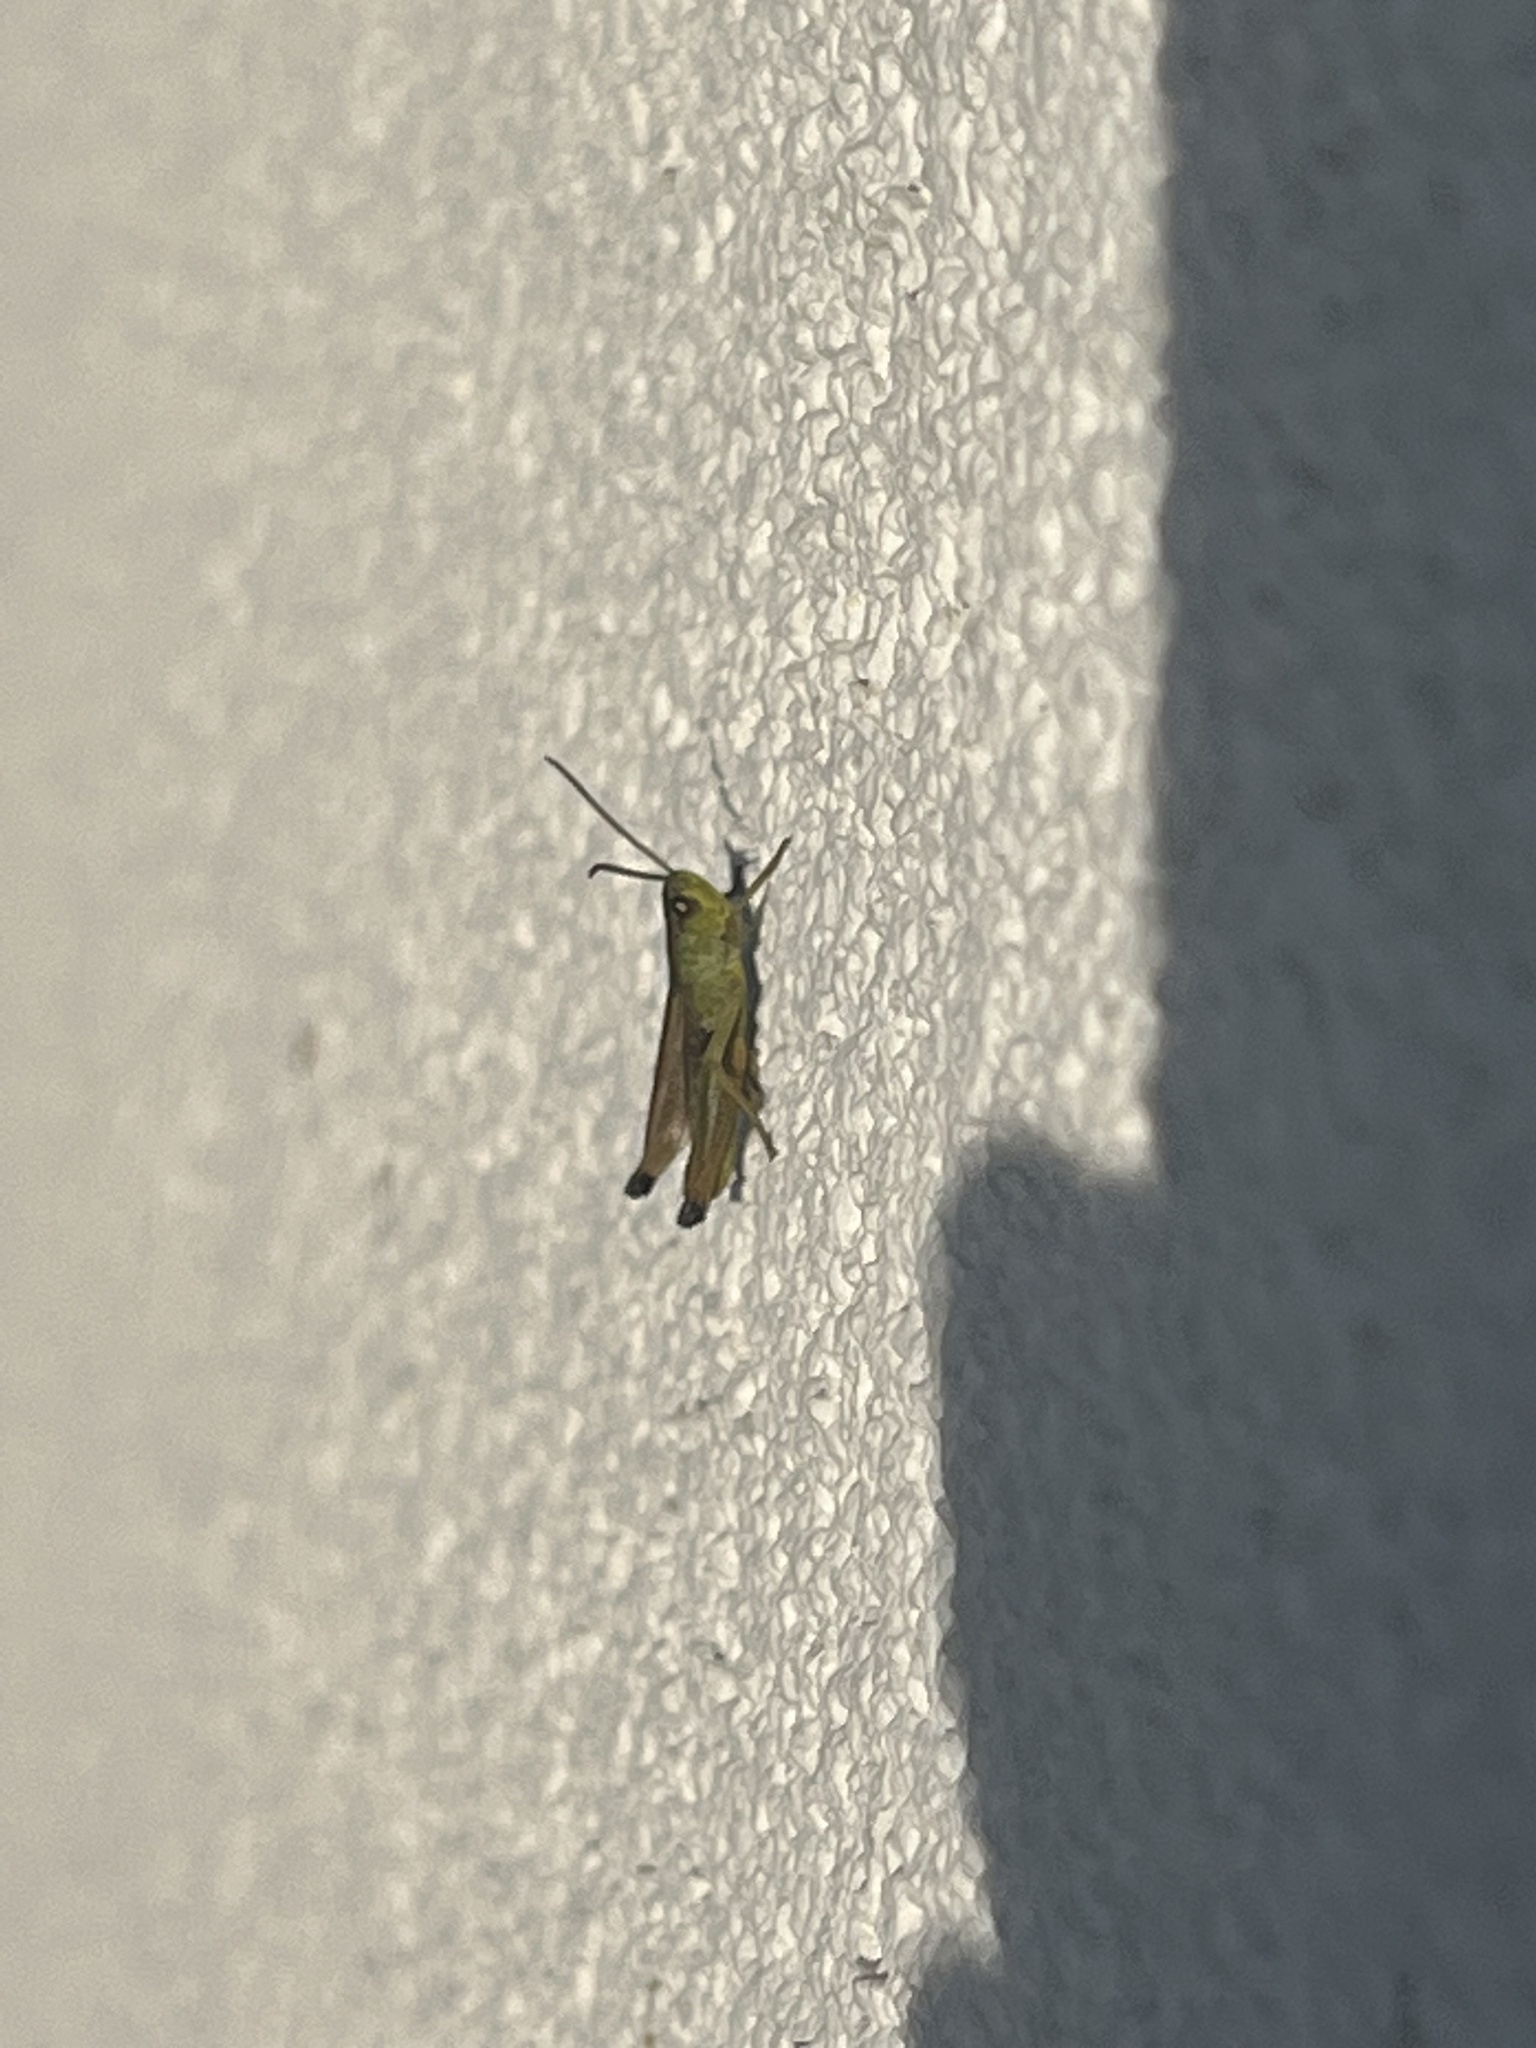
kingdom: Animalia
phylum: Arthropoda
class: Insecta
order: Orthoptera
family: Acrididae
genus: Pseudochorthippus
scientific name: Pseudochorthippus parallelus
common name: Meadow grasshopper
